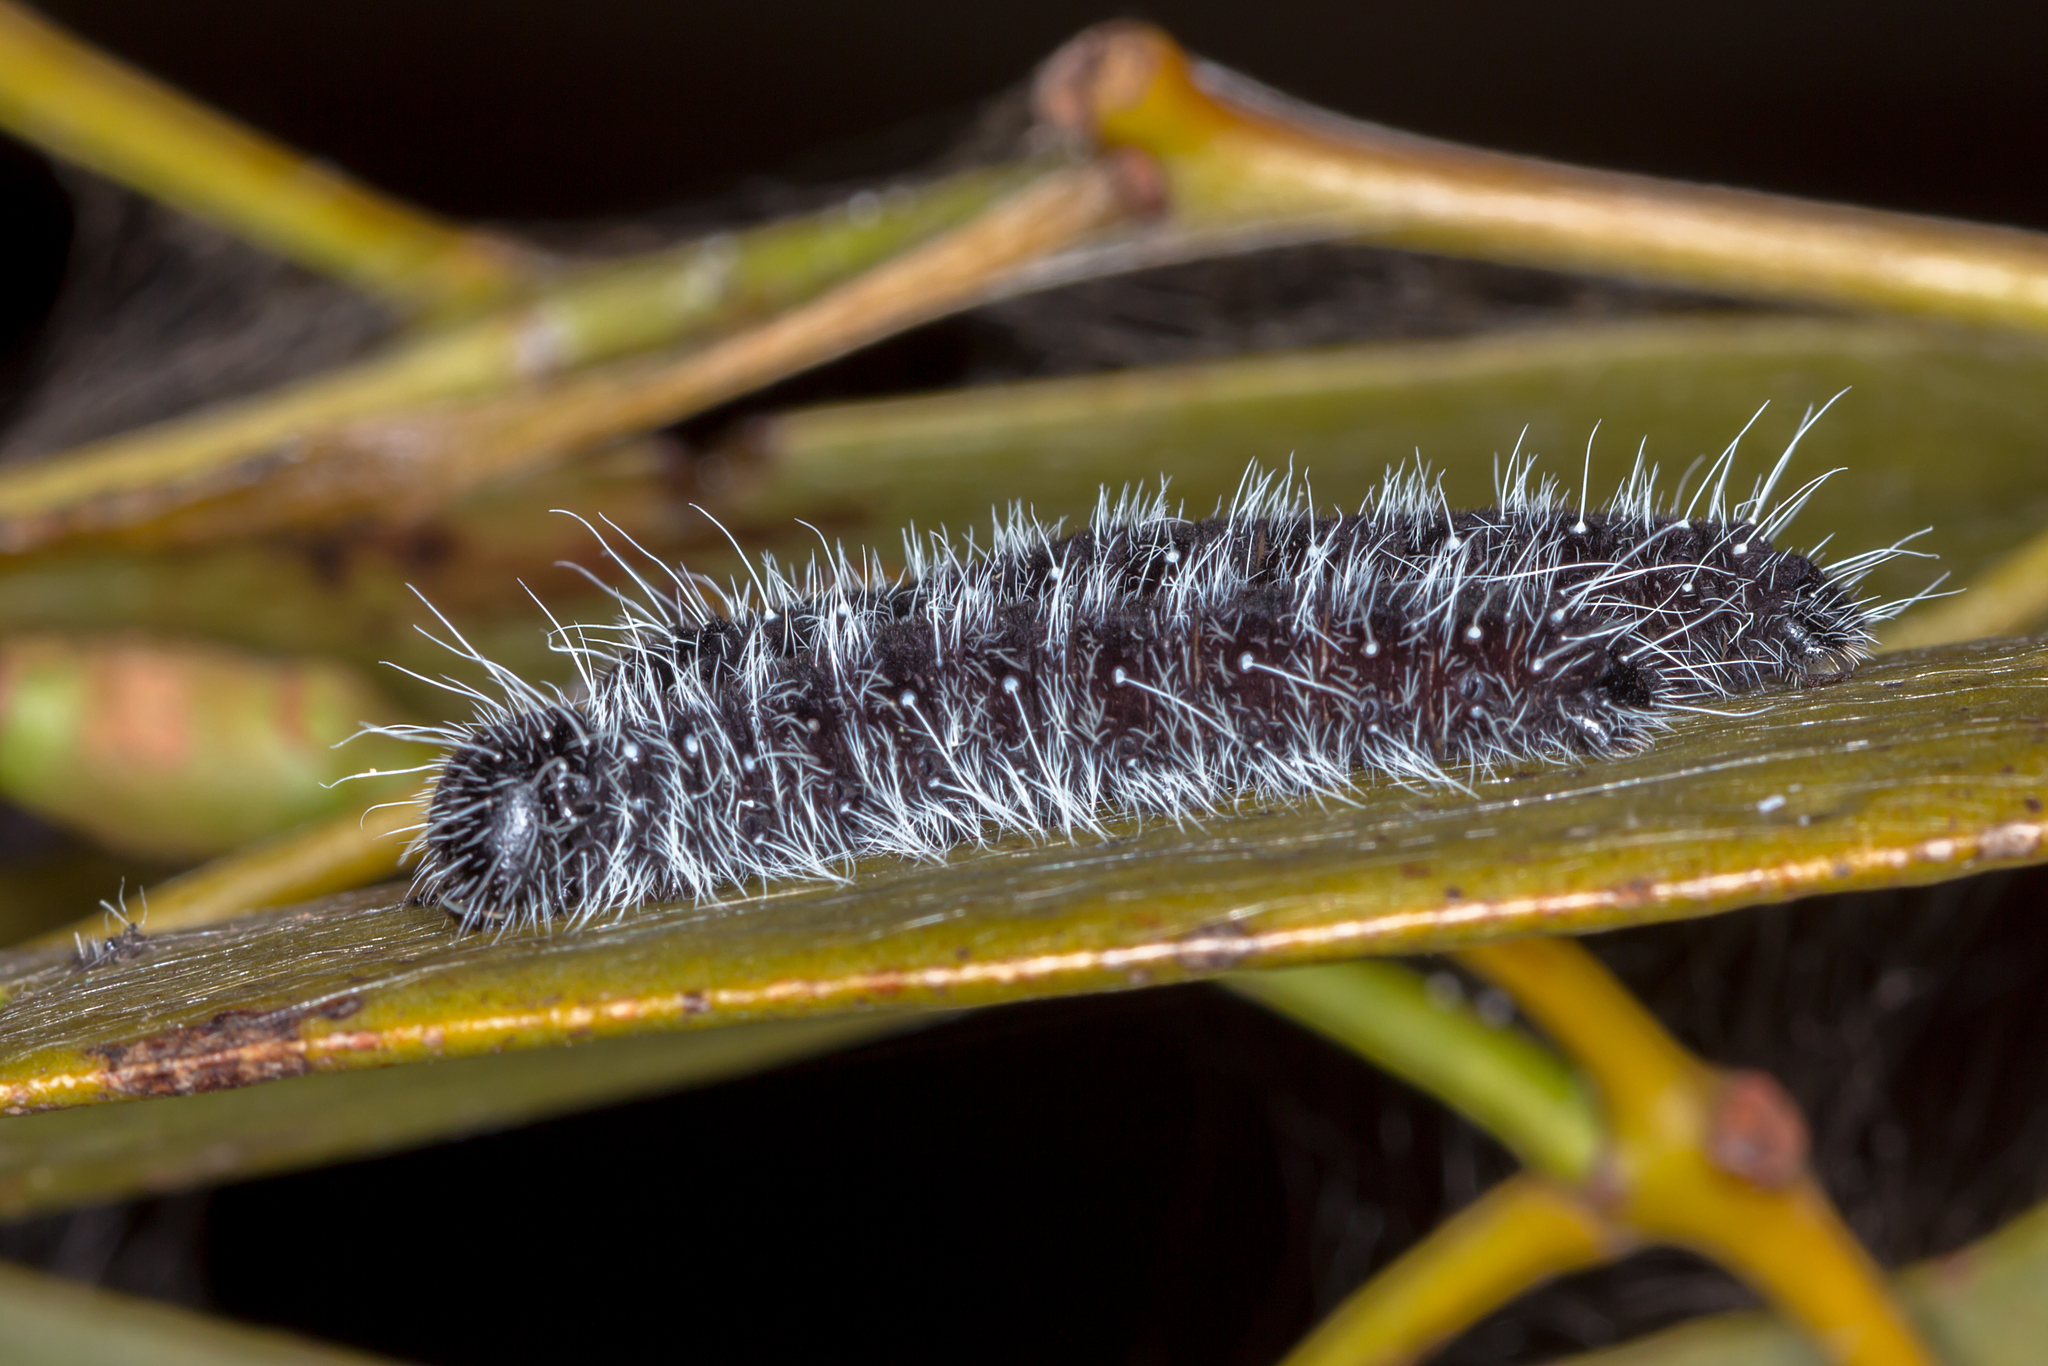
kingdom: Animalia
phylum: Arthropoda
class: Insecta
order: Lepidoptera
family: Pieridae
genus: Delias
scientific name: Delias harpalyce
